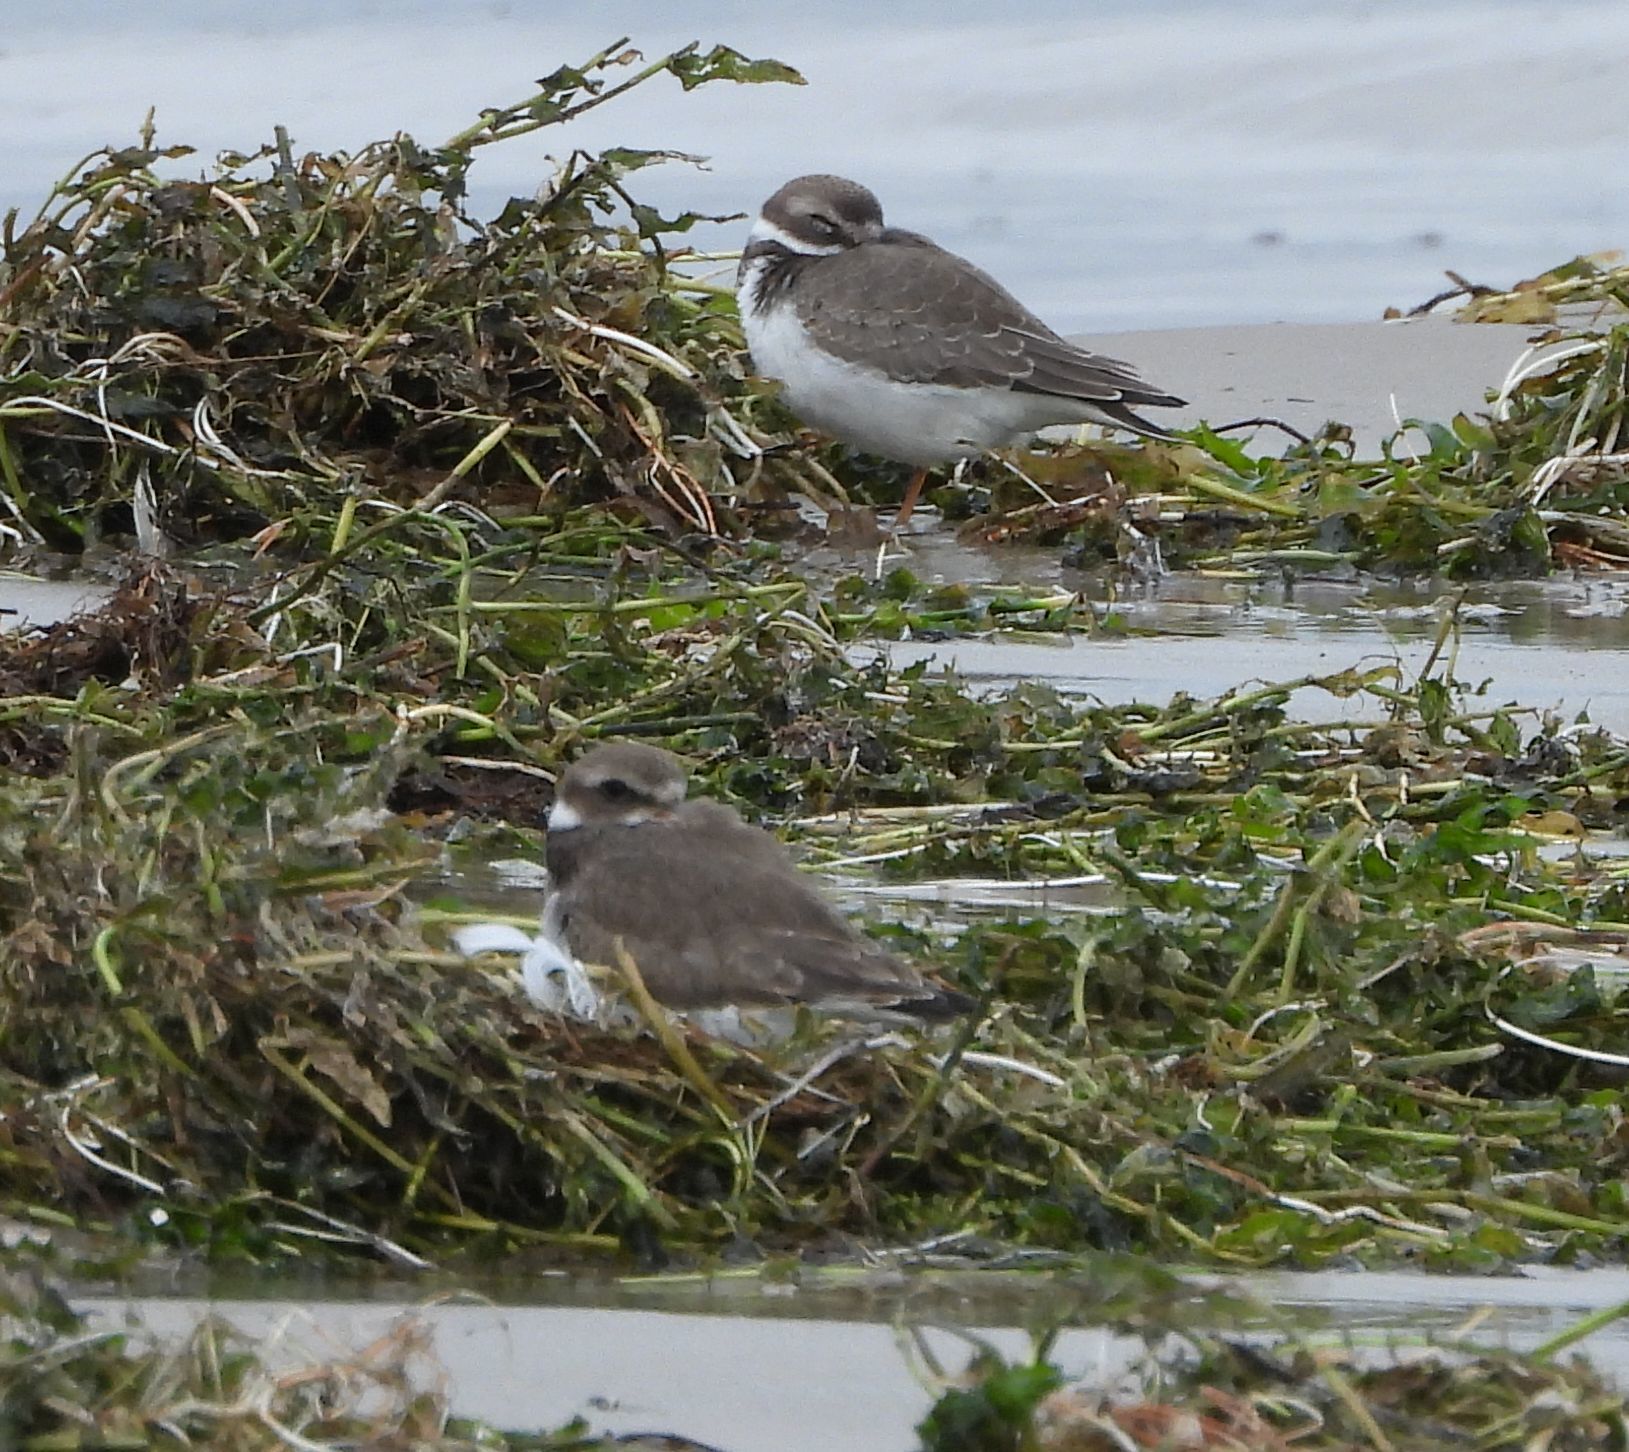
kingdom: Animalia
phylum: Chordata
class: Aves
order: Charadriiformes
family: Charadriidae
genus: Charadrius
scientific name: Charadrius semipalmatus
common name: Semipalmated plover
